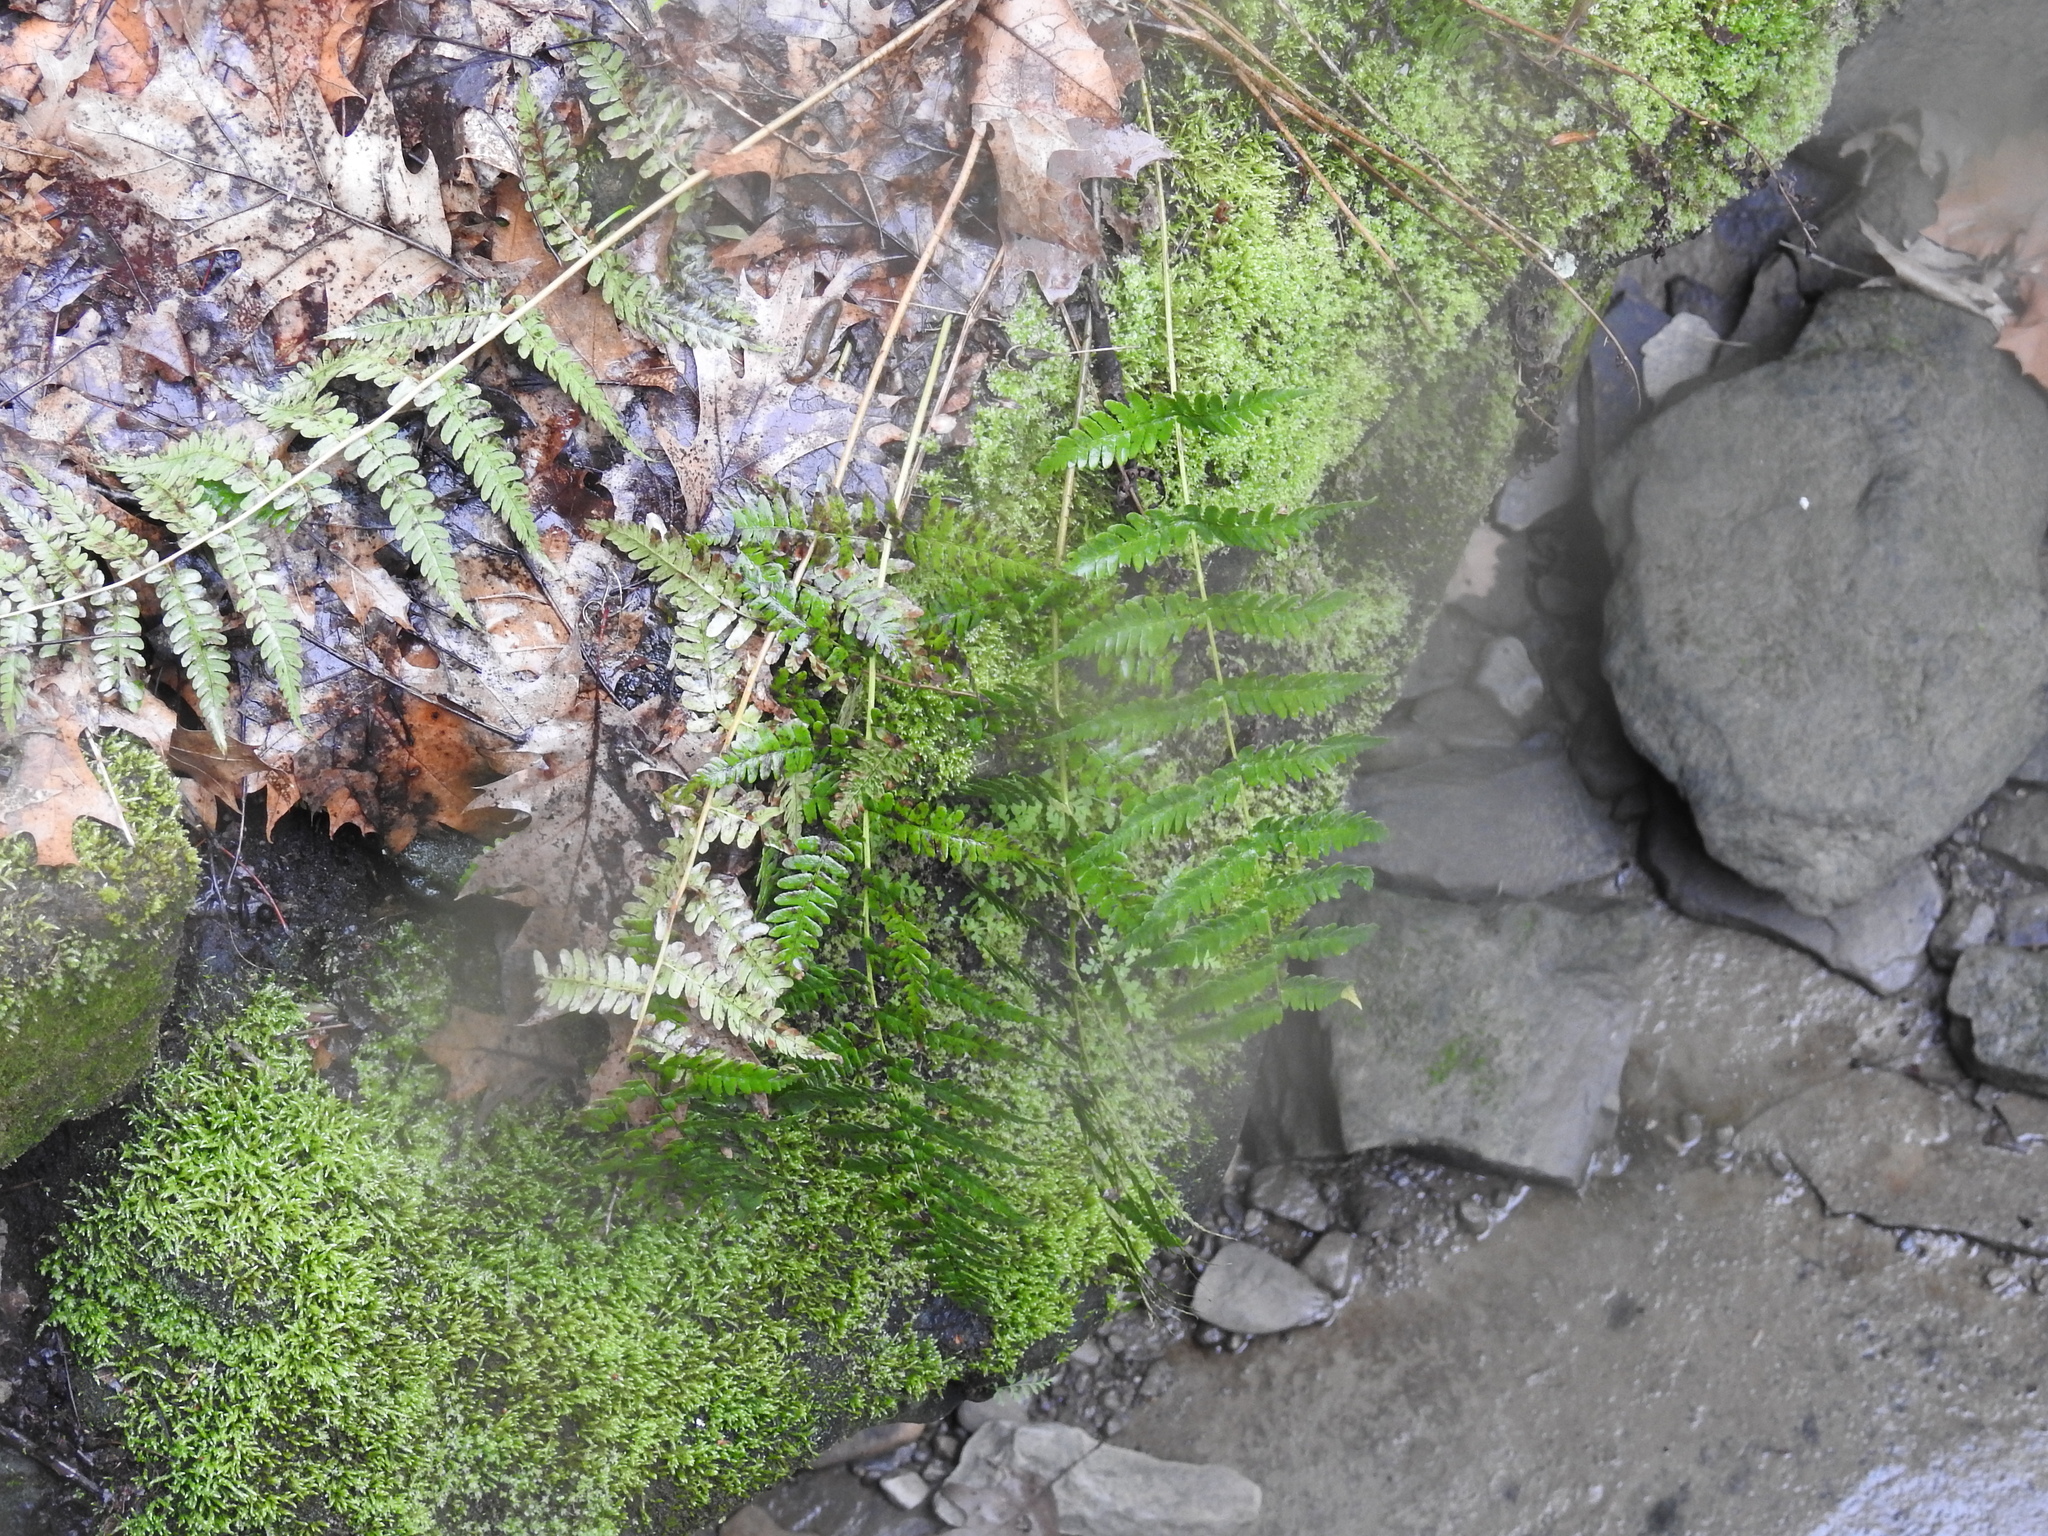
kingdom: Plantae
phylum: Tracheophyta
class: Polypodiopsida
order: Polypodiales
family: Dryopteridaceae
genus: Dryopteris
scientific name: Dryopteris marginalis
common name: Marginal wood fern
